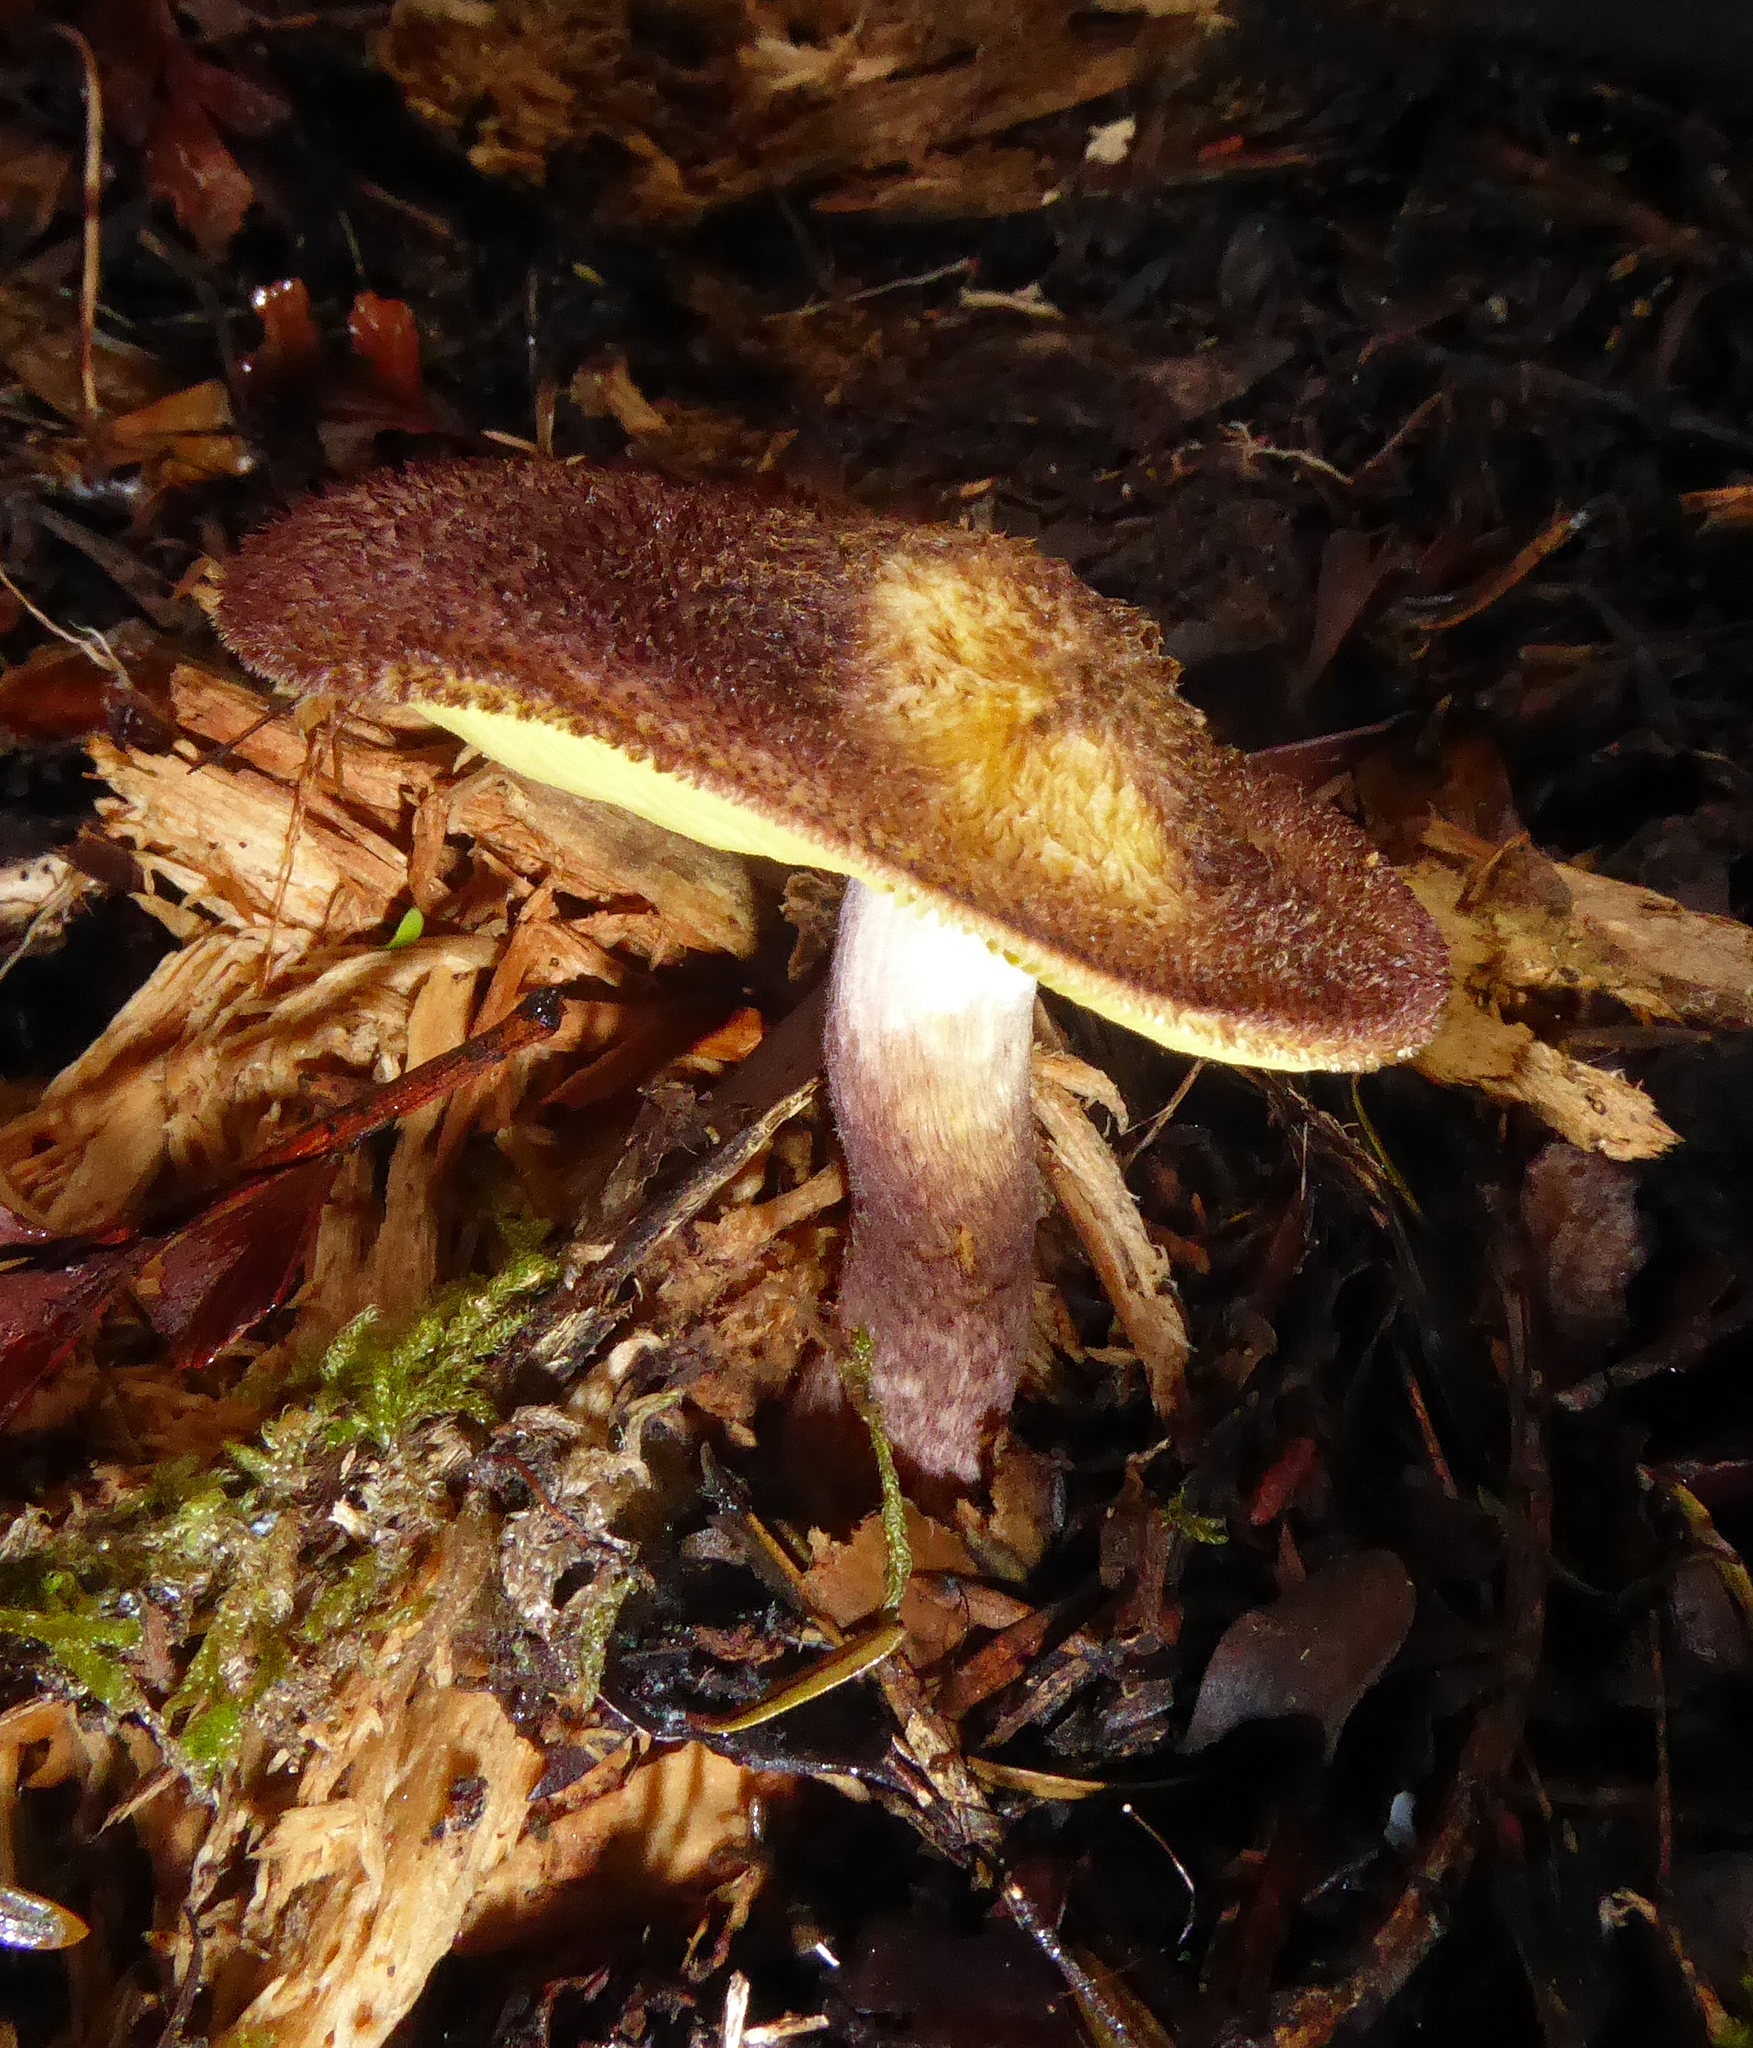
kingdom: Fungi
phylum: Basidiomycota
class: Agaricomycetes
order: Agaricales
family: Tricholomataceae
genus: Tricholomopsis
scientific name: Tricholomopsis scabra
